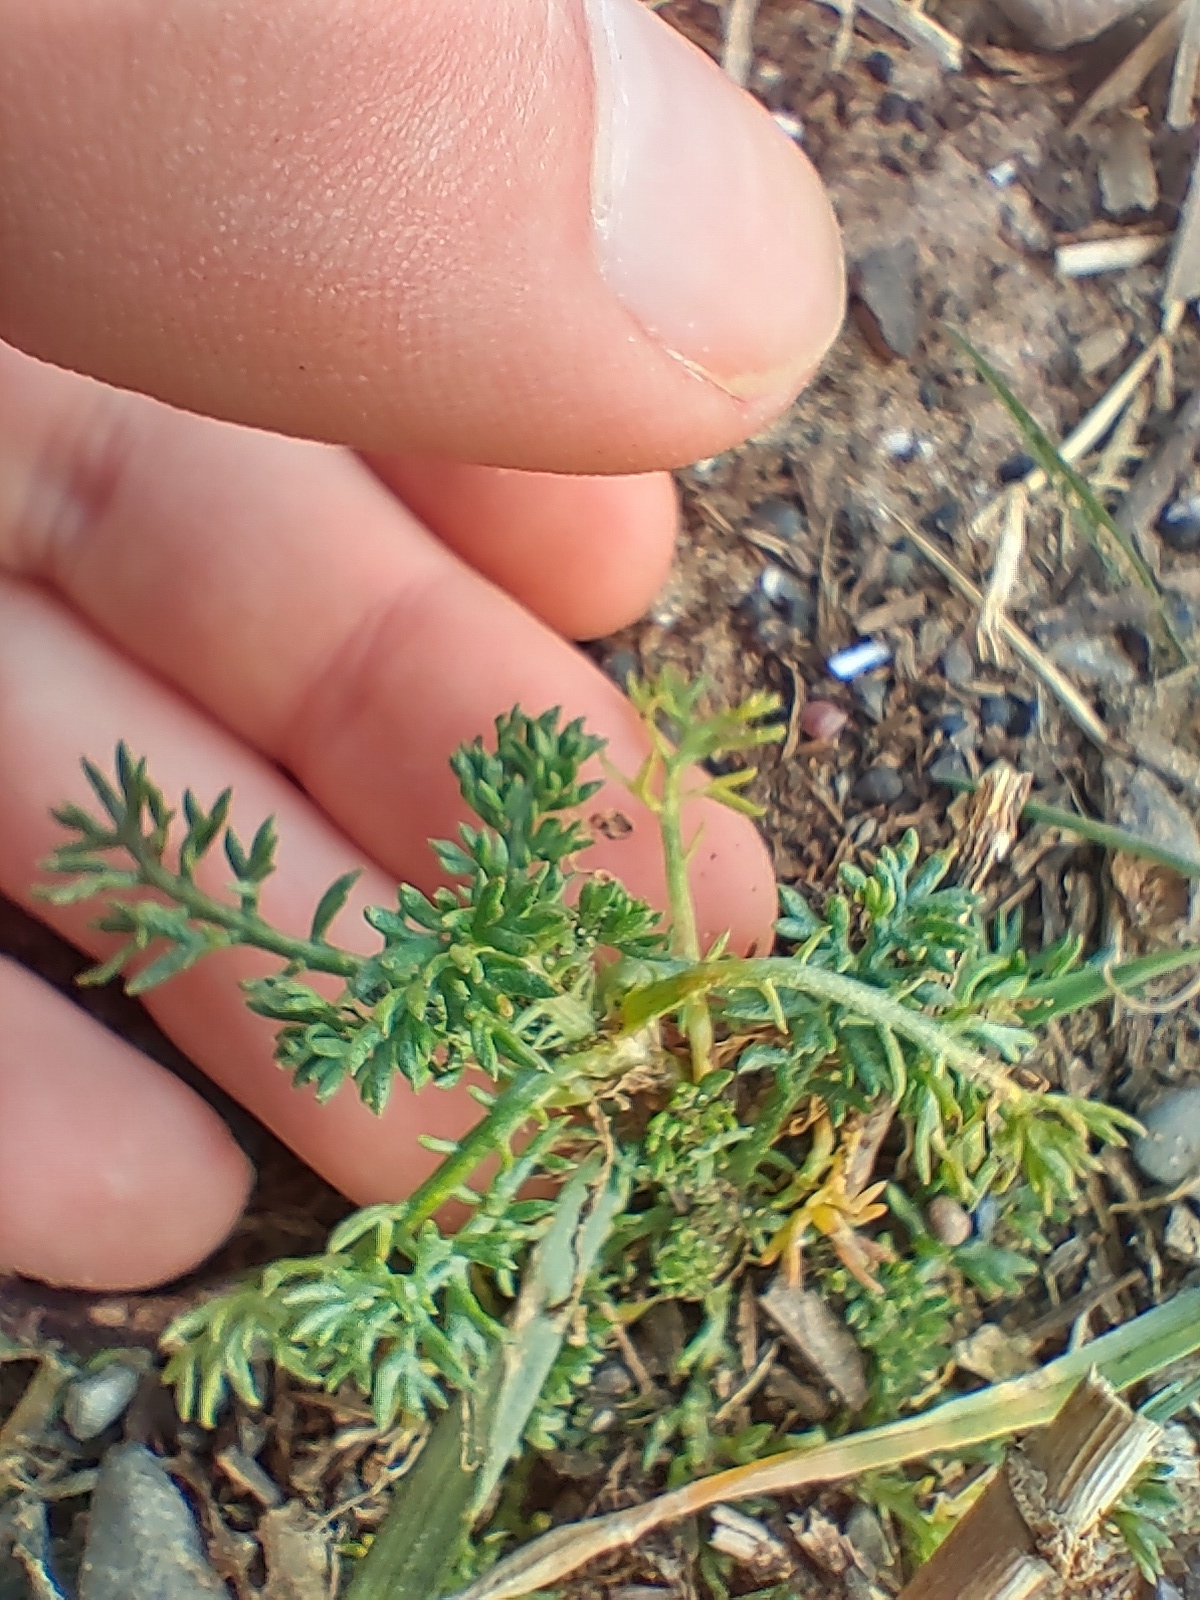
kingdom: Plantae
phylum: Tracheophyta
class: Magnoliopsida
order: Asterales
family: Asteraceae
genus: Tripleurospermum
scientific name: Tripleurospermum maritimum
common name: Sea mayweed
